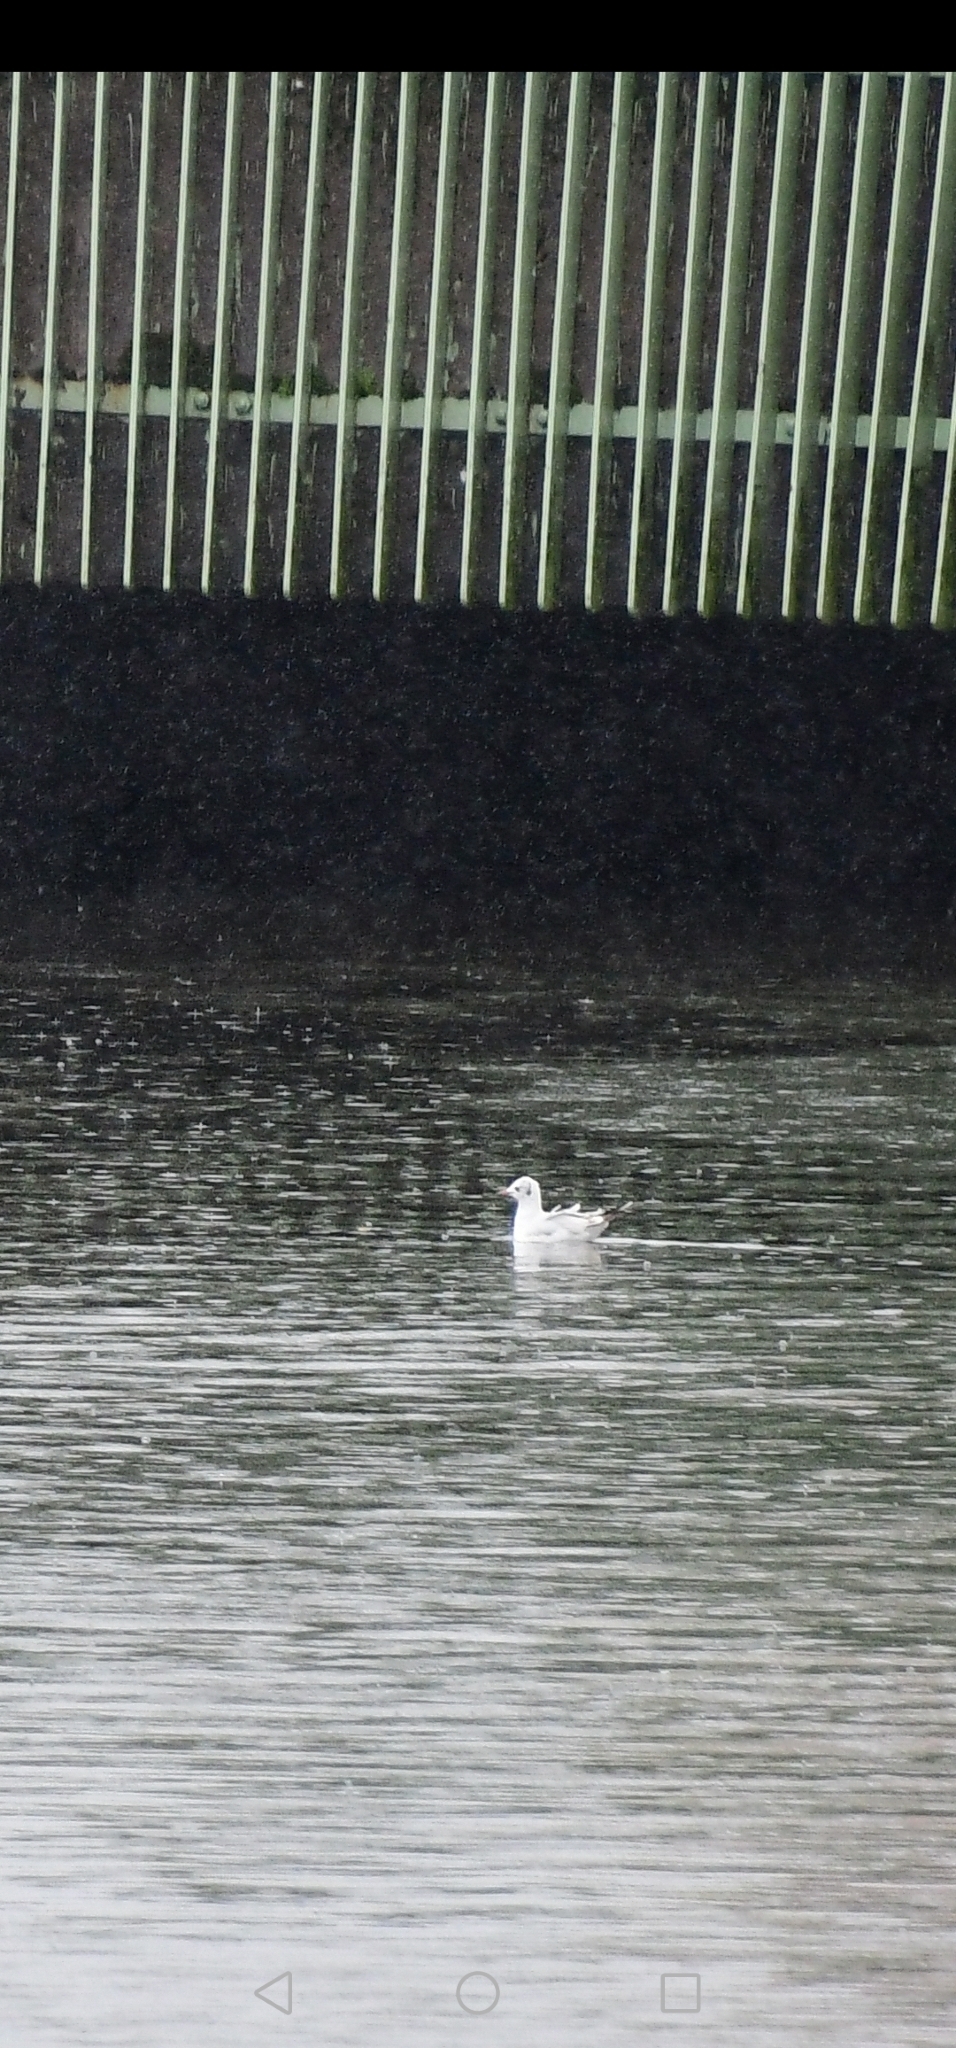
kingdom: Animalia
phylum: Chordata
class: Aves
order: Charadriiformes
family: Laridae
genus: Chroicocephalus
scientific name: Chroicocephalus ridibundus
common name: Black-headed gull
